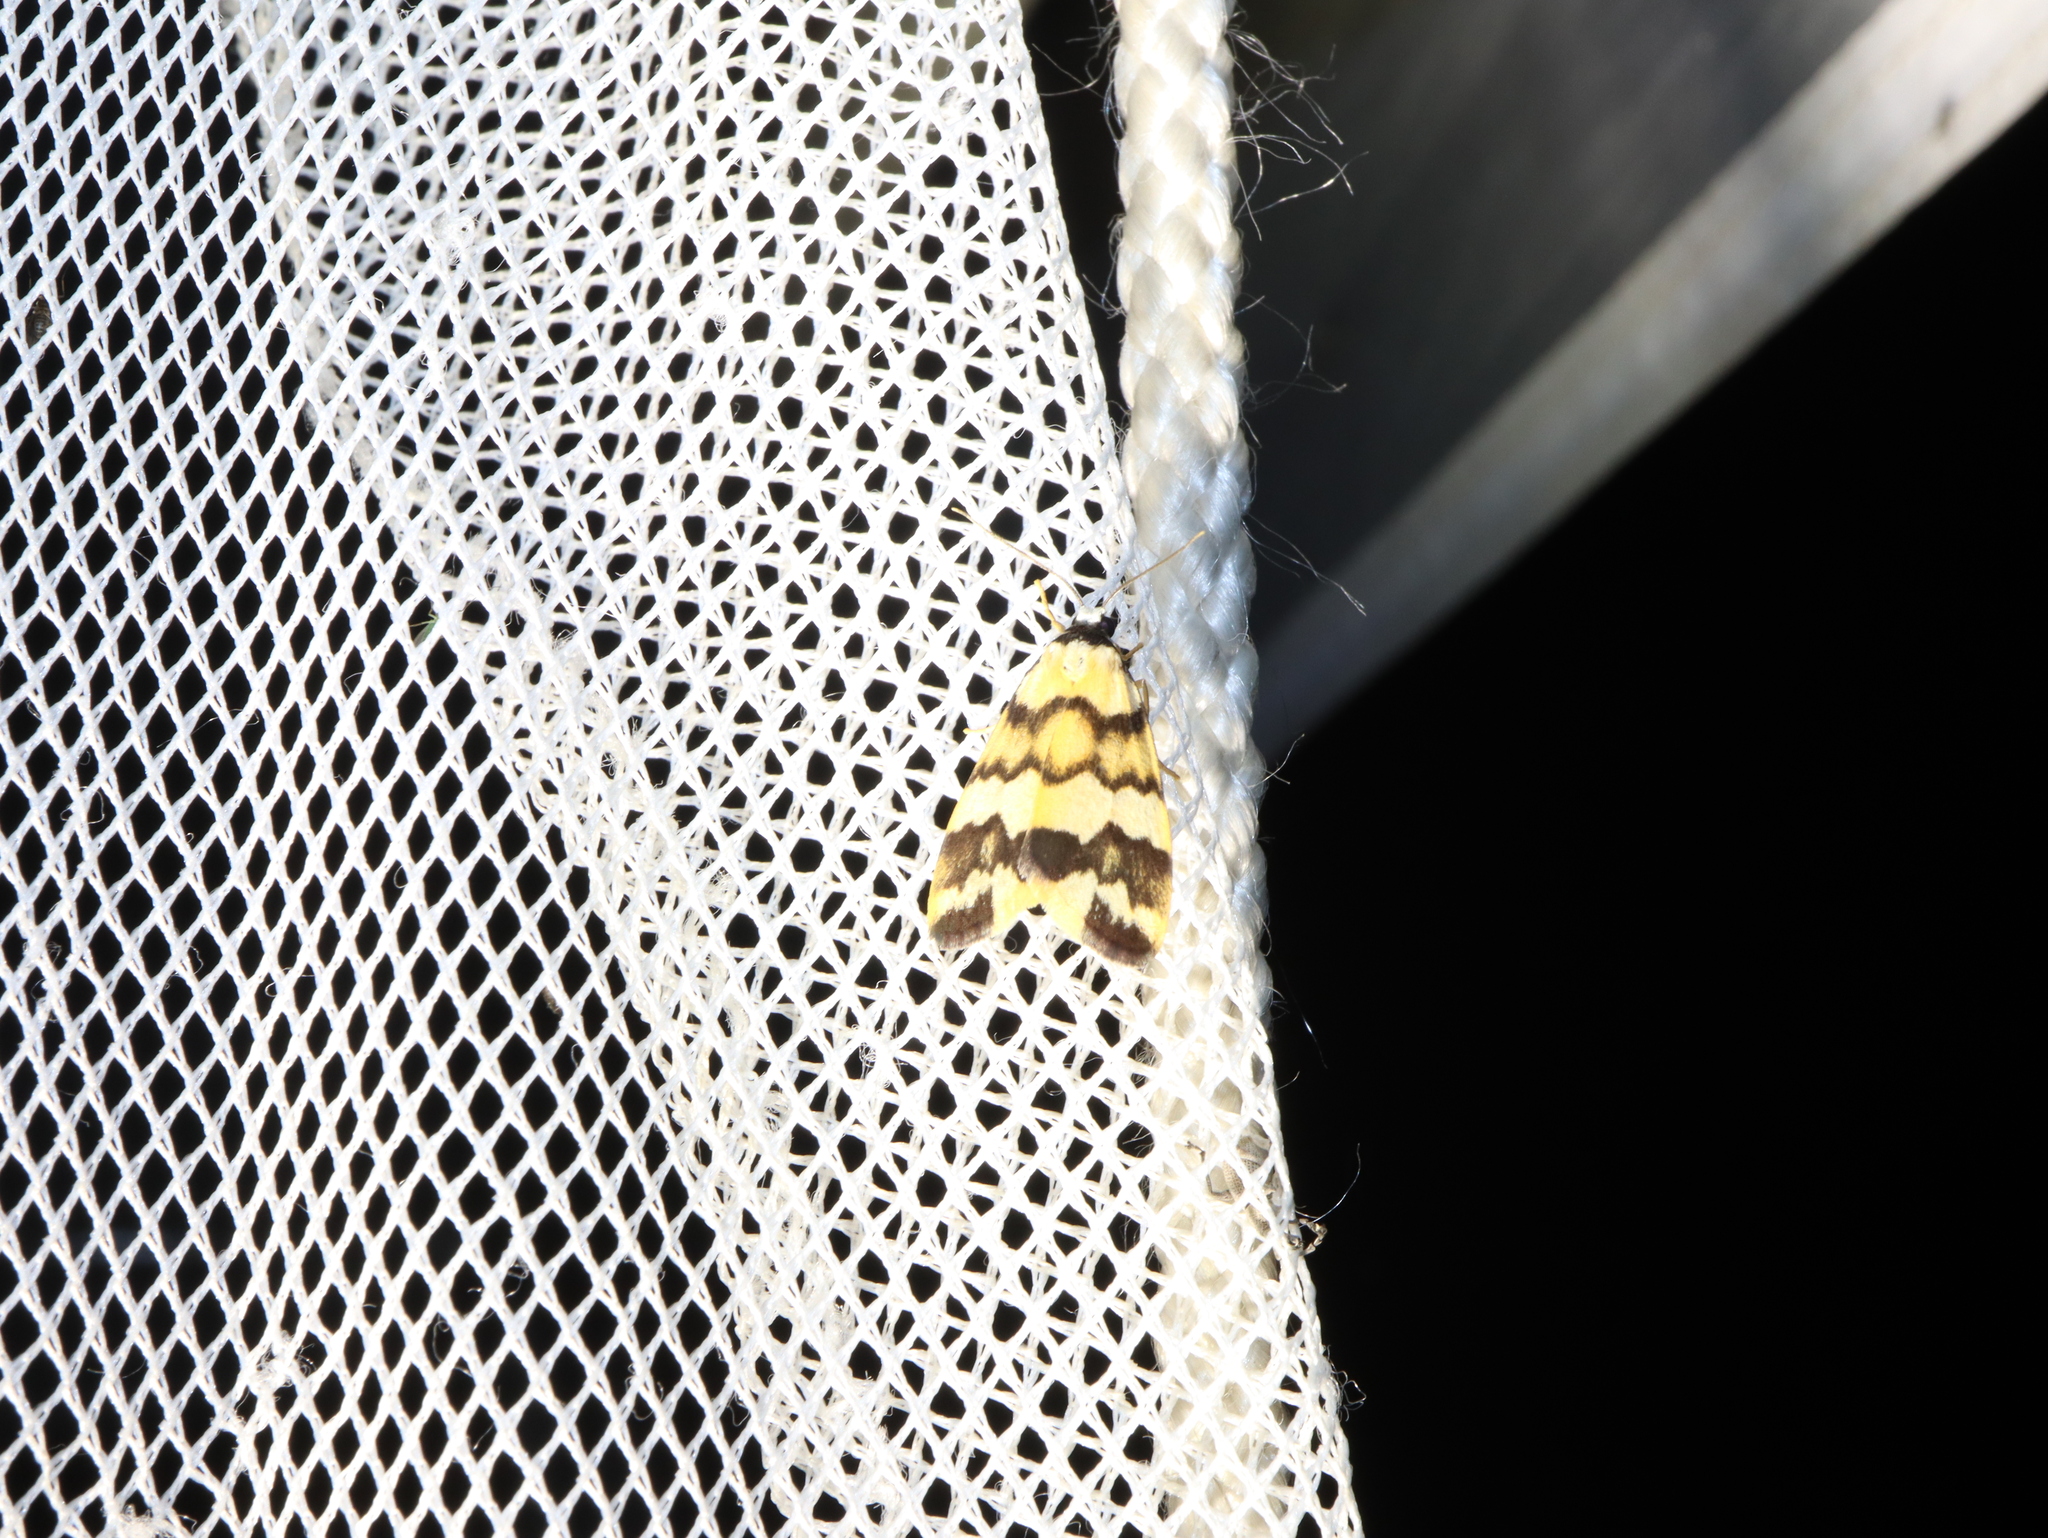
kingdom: Animalia
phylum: Arthropoda
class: Insecta
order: Lepidoptera
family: Erebidae
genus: Termessa
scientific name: Termessa gratiosa
